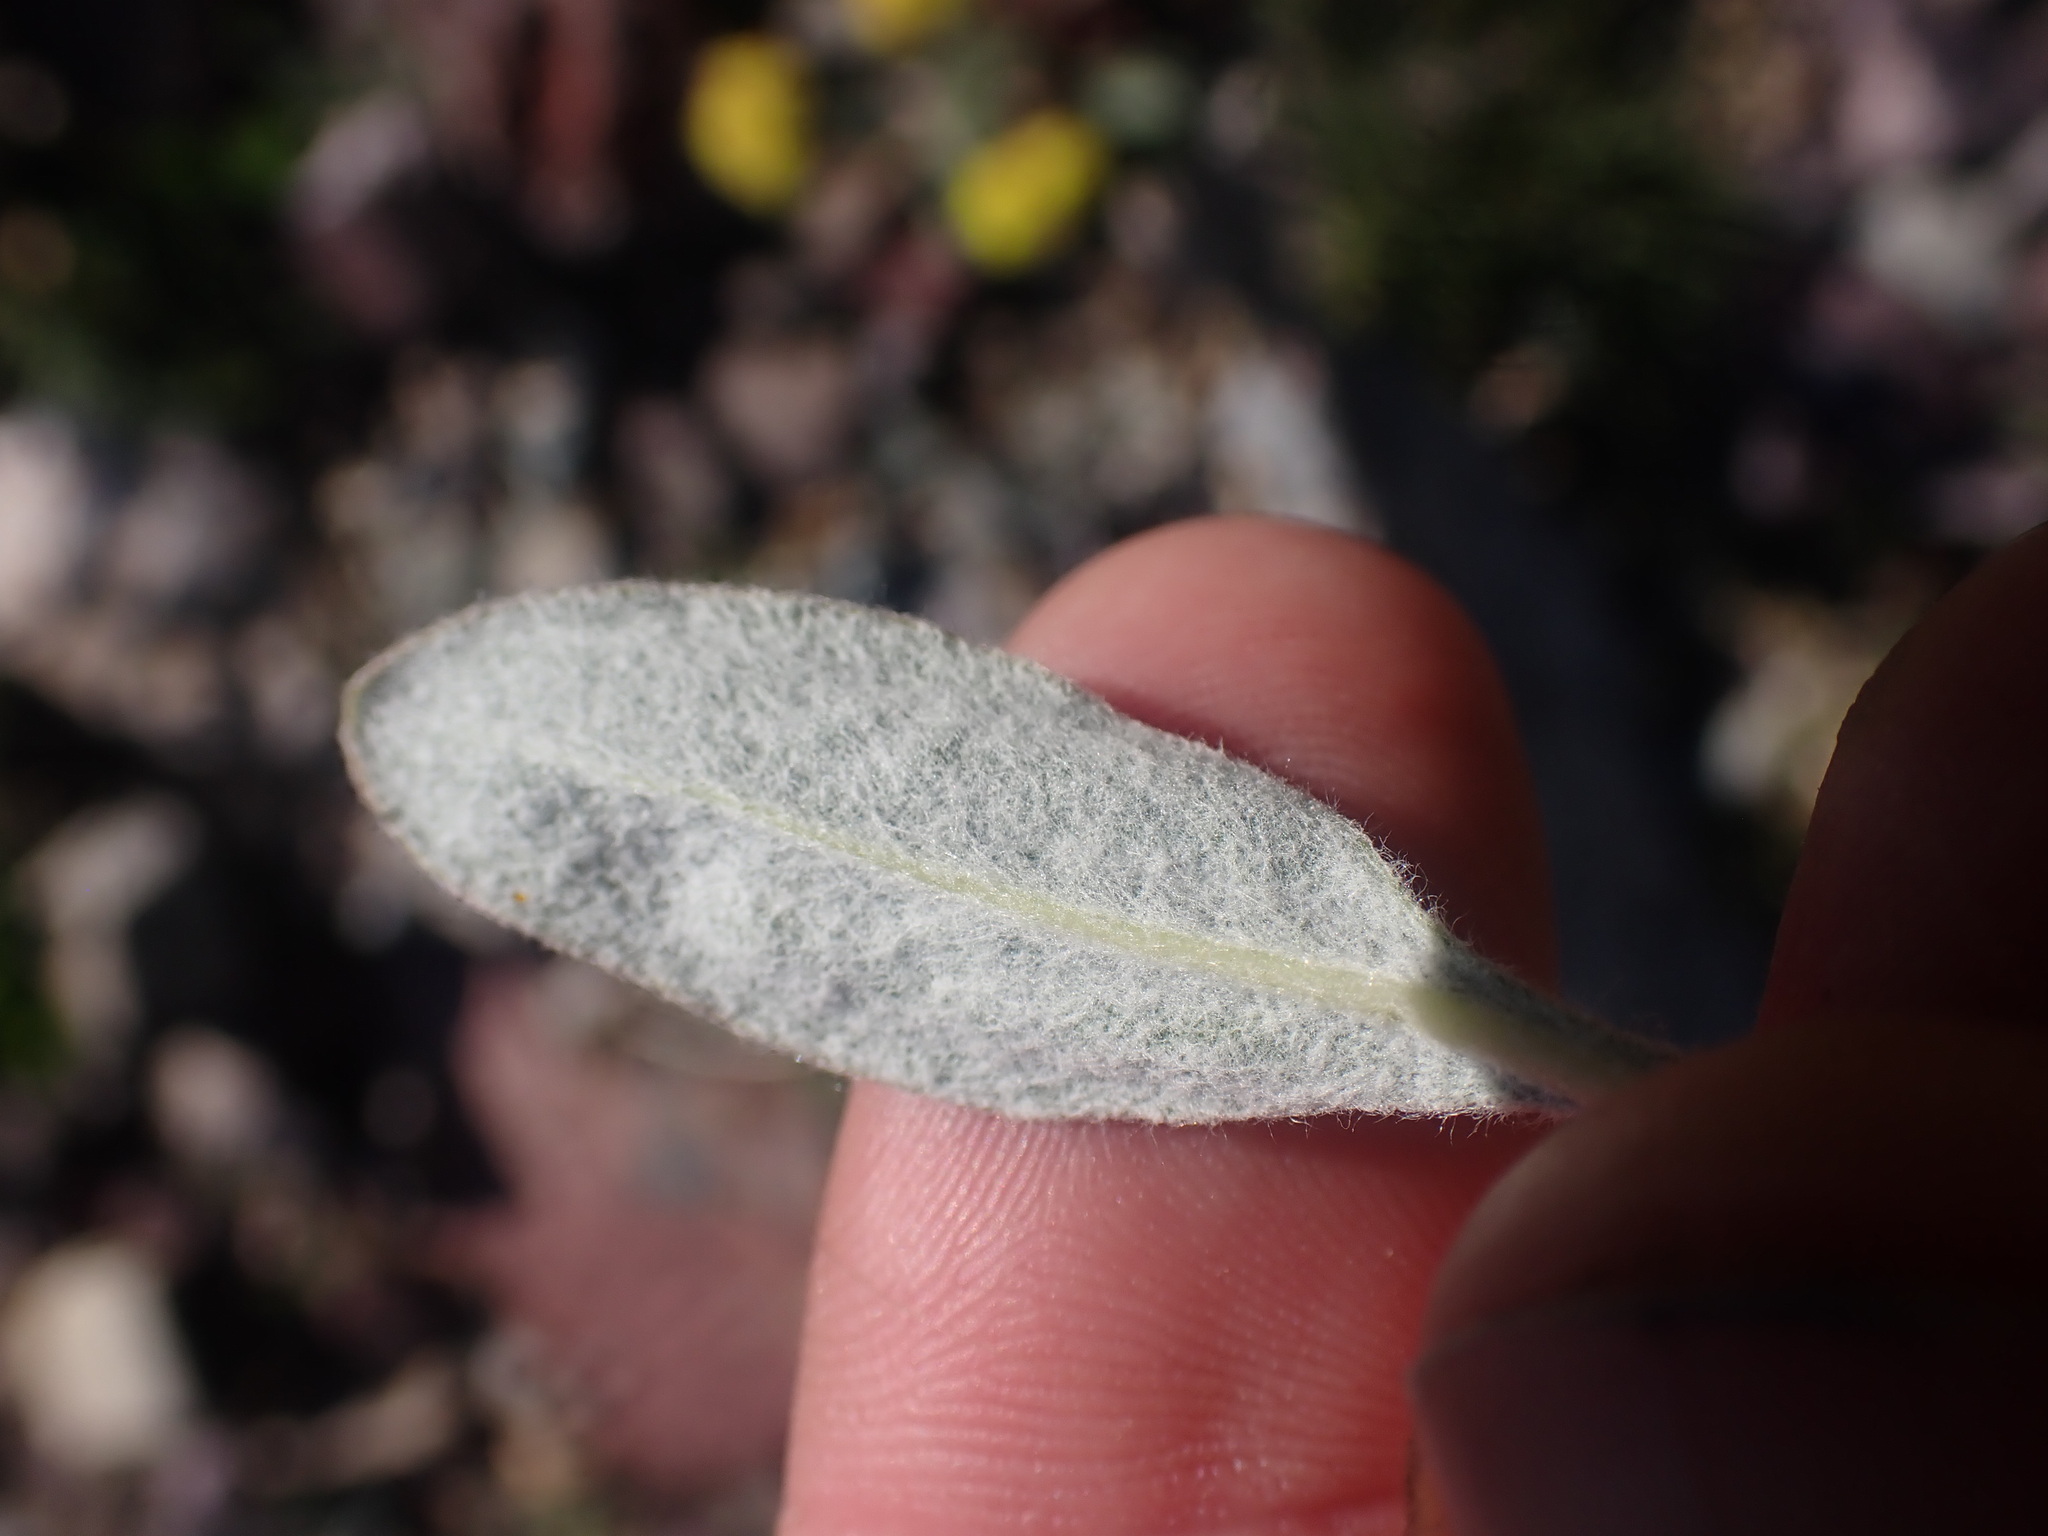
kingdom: Plantae
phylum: Tracheophyta
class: Magnoliopsida
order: Caryophyllales
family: Polygonaceae
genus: Eriogonum
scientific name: Eriogonum flavum
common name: Alpine golden wild buckwheat
